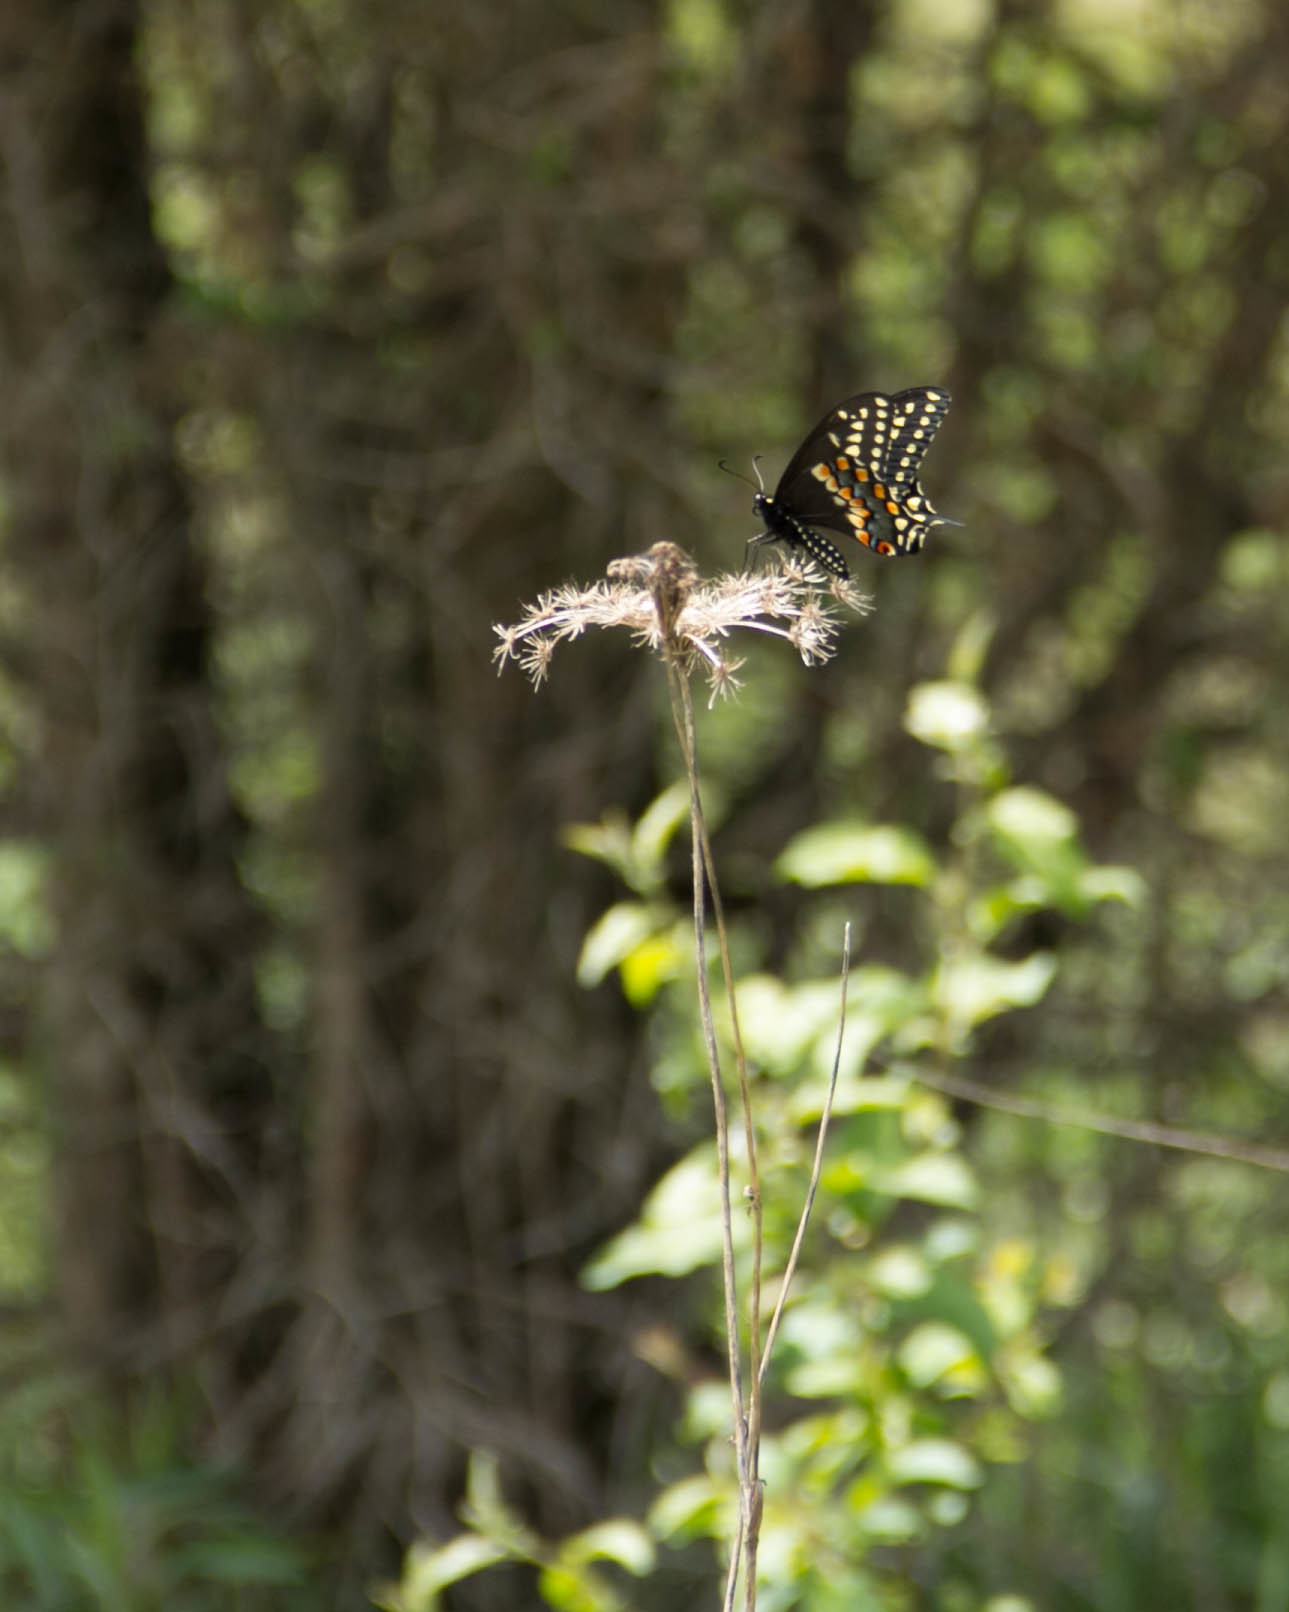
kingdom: Animalia
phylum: Arthropoda
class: Insecta
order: Lepidoptera
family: Papilionidae
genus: Papilio
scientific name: Papilio polyxenes
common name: Black swallowtail
